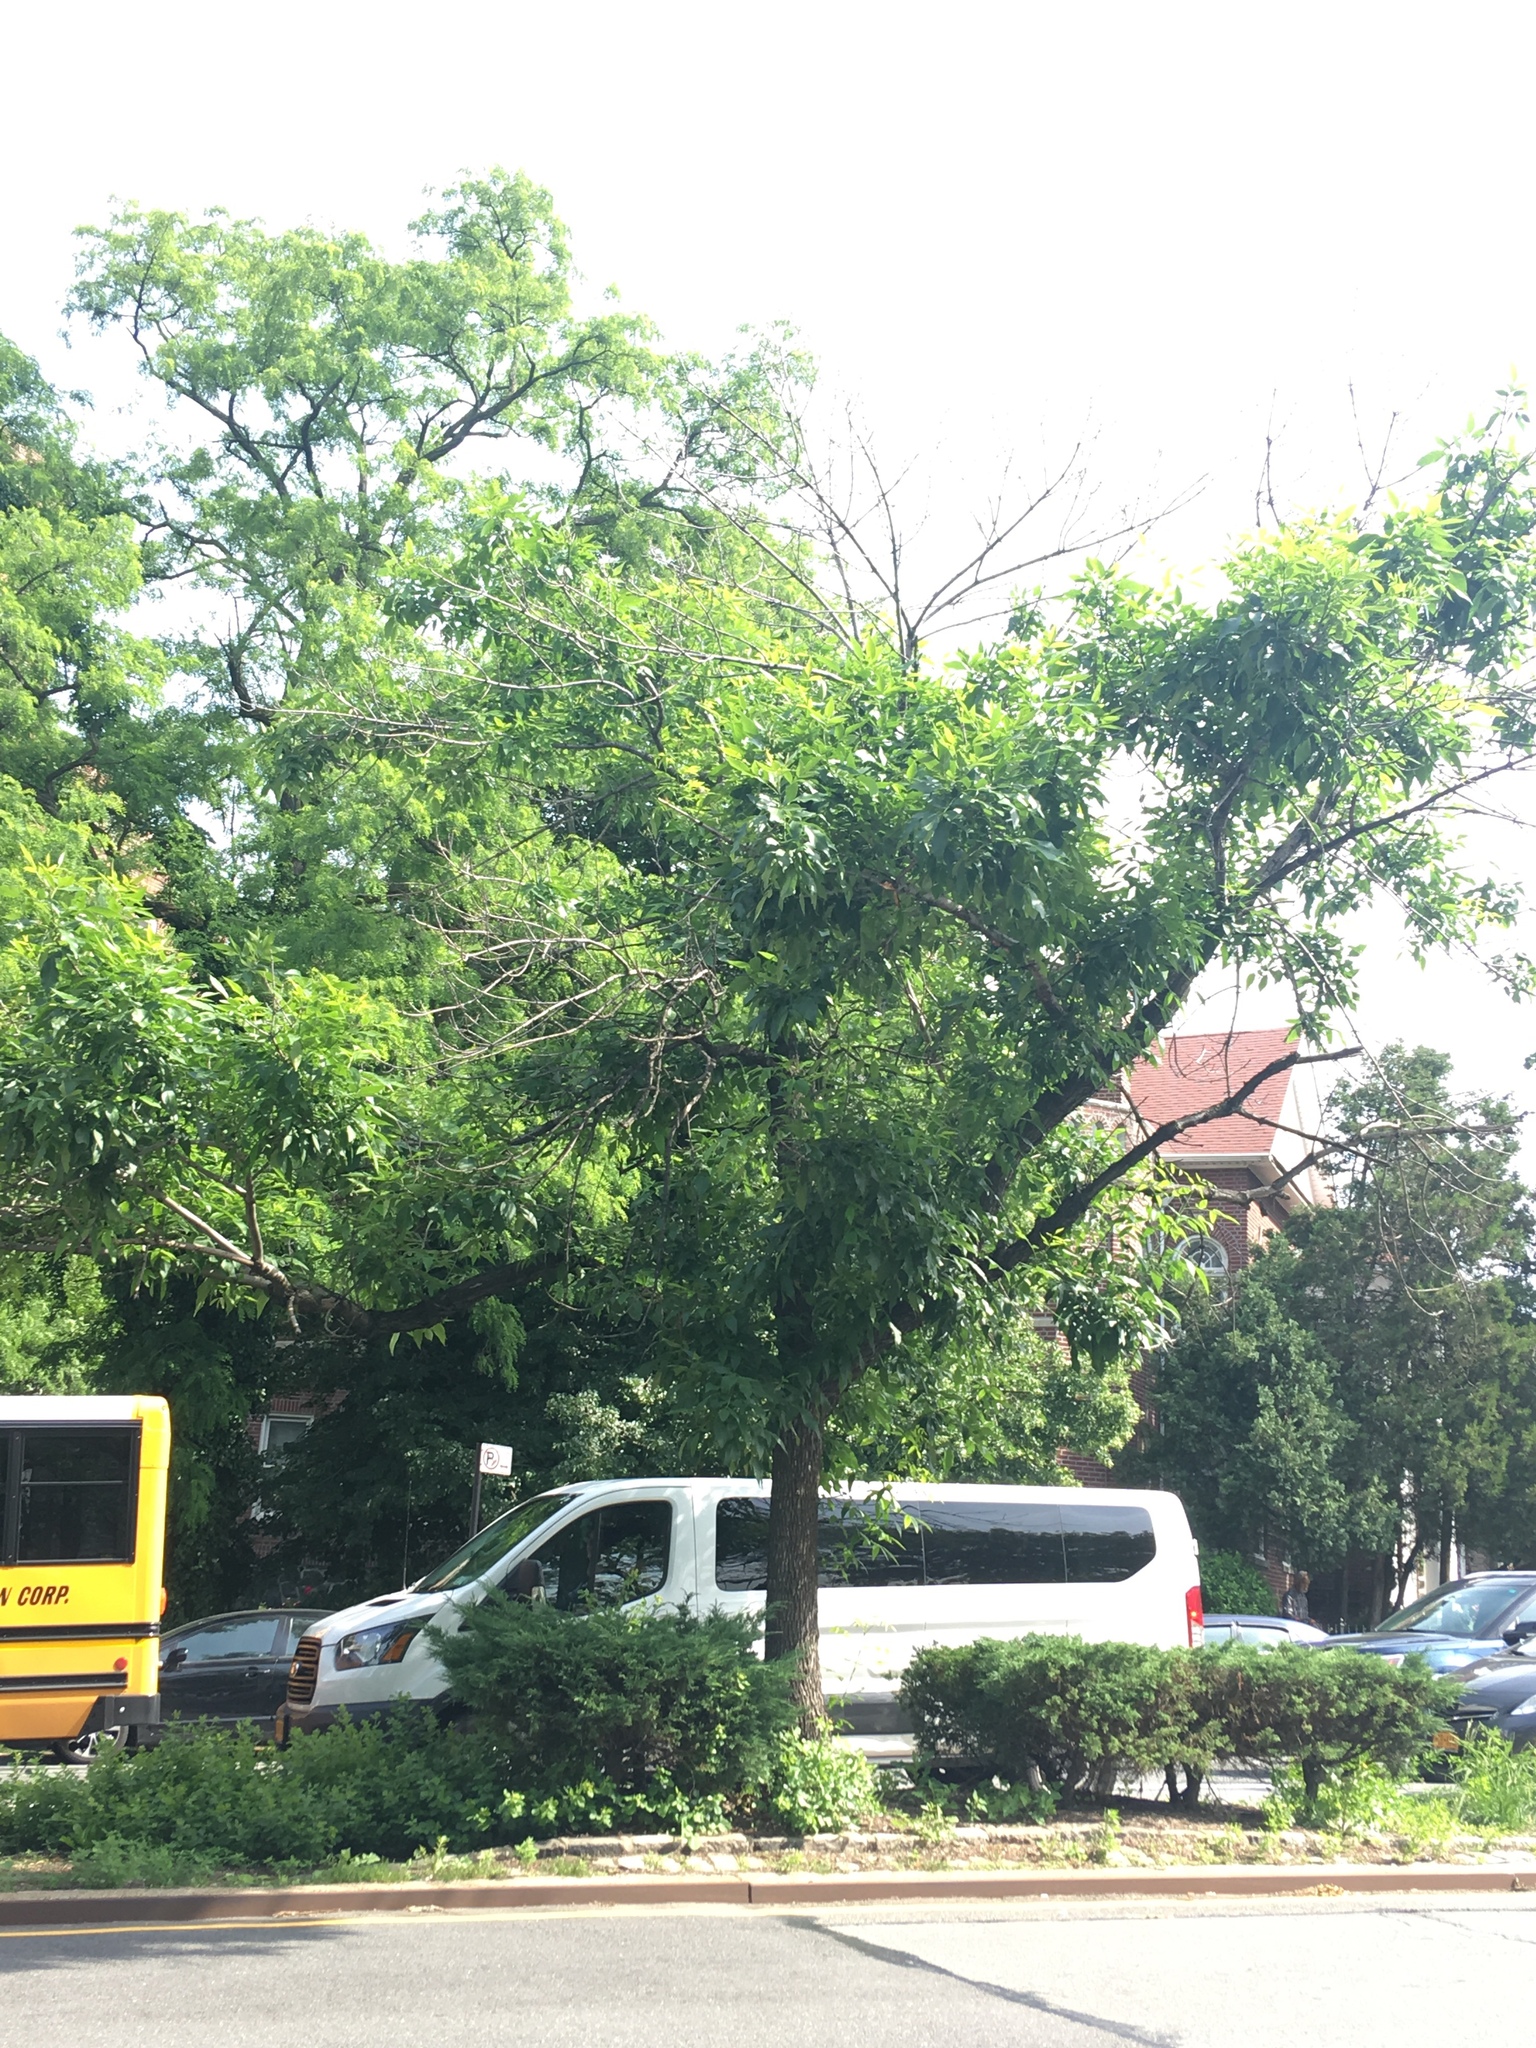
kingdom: Plantae
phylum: Tracheophyta
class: Magnoliopsida
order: Lamiales
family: Oleaceae
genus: Fraxinus
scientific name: Fraxinus pennsylvanica
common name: Green ash
